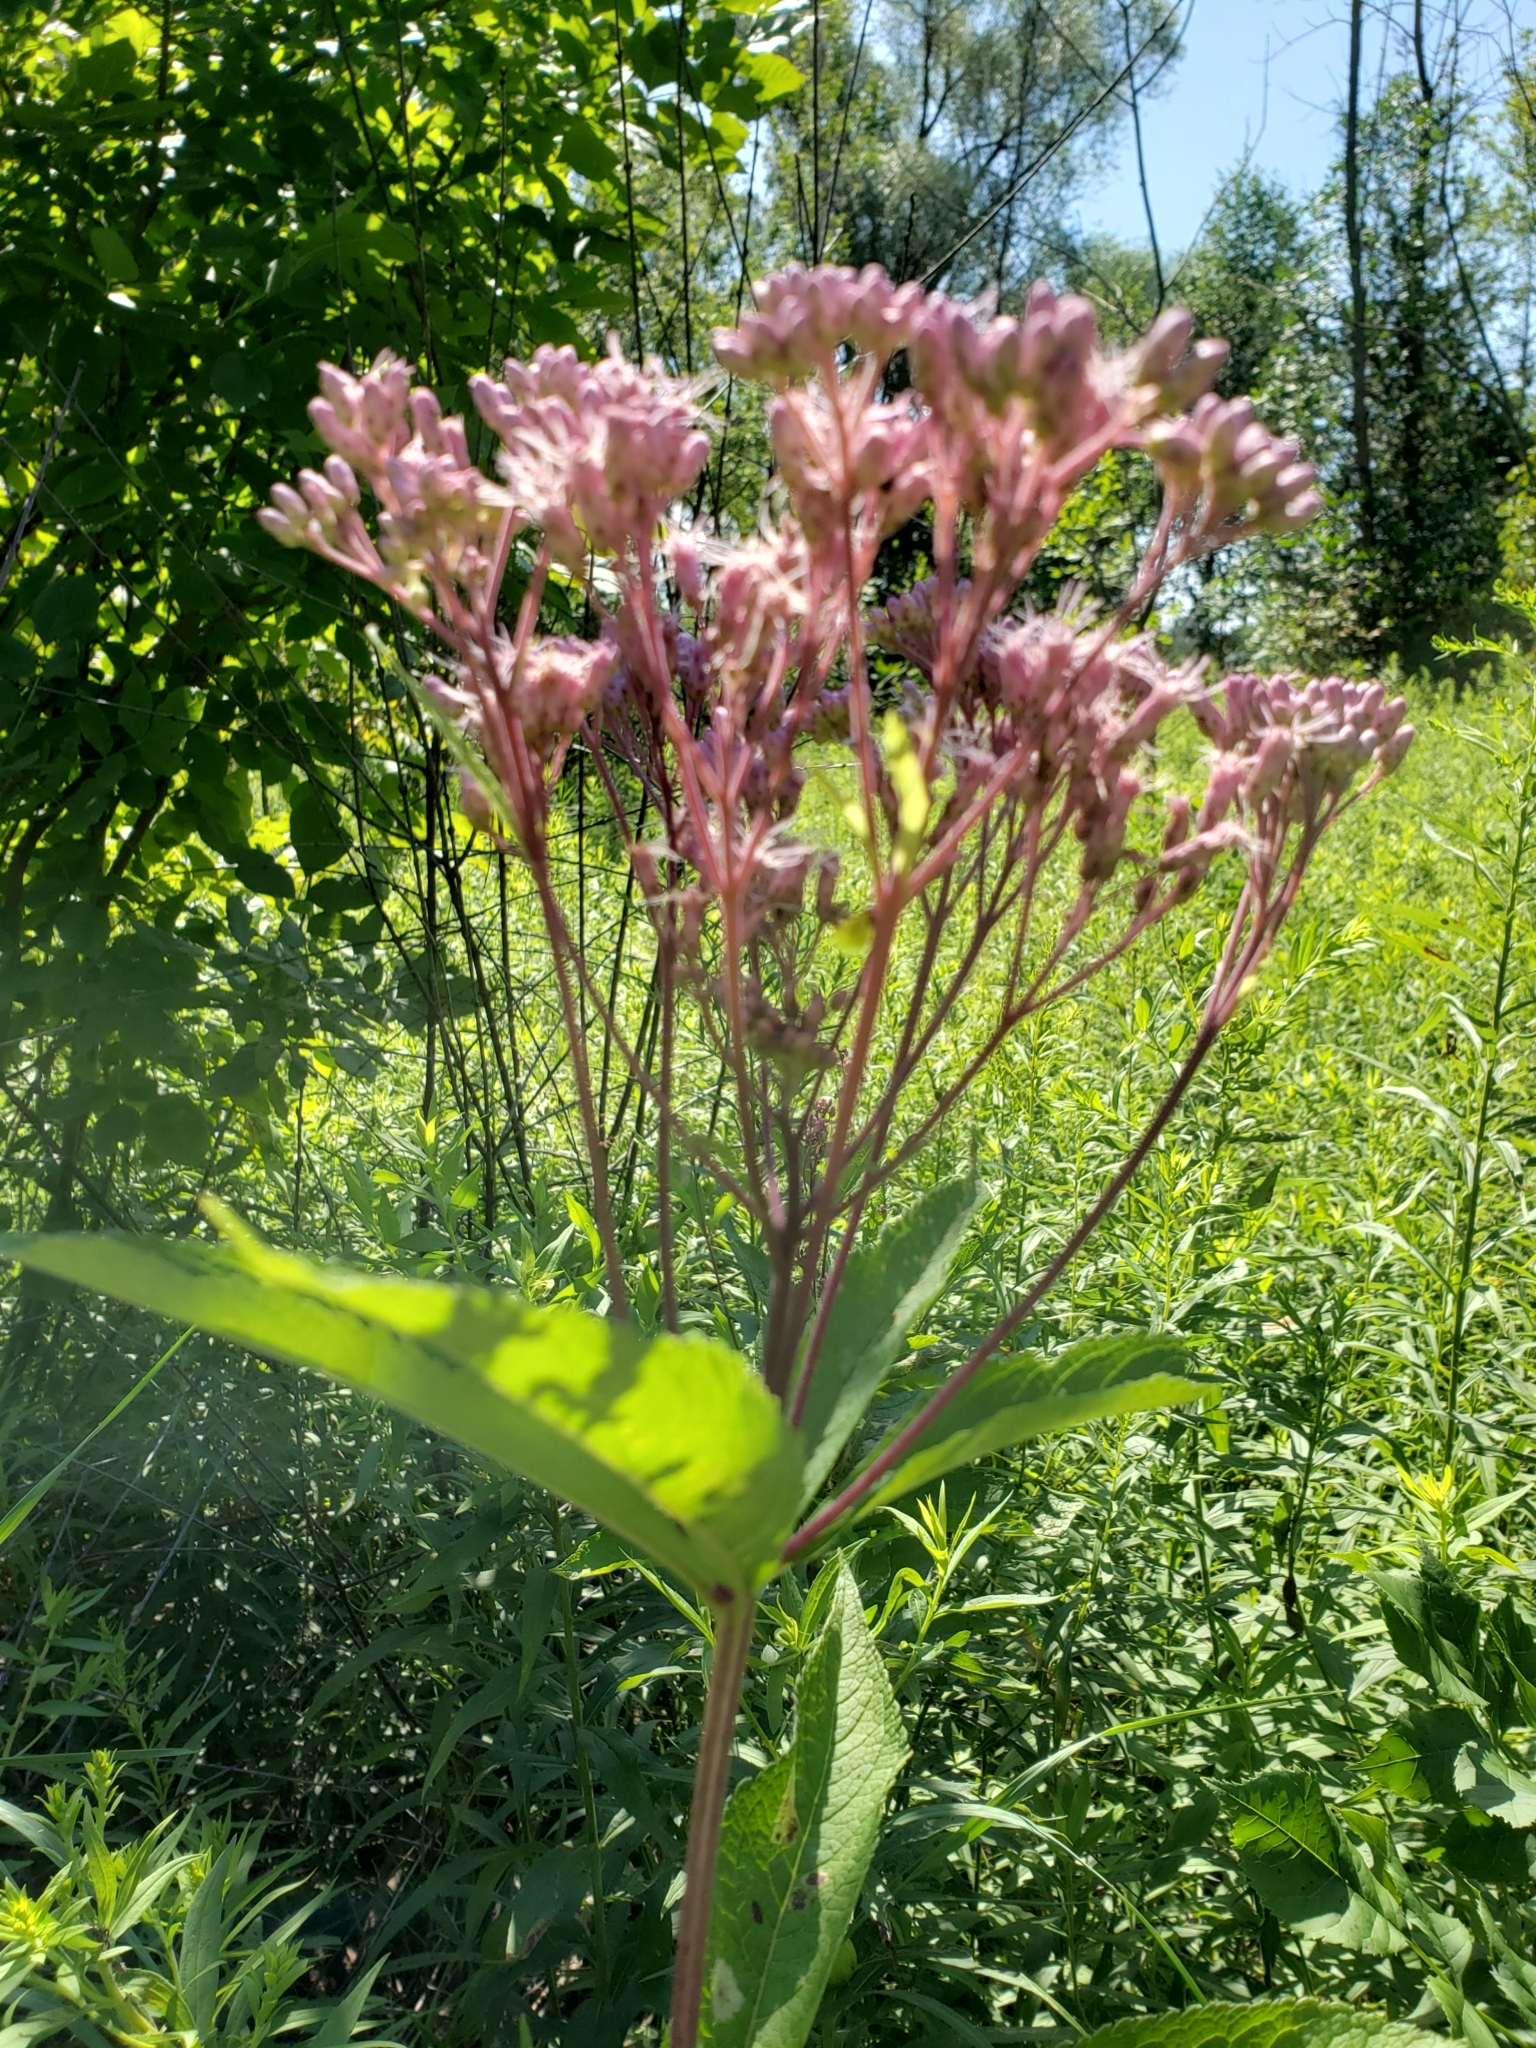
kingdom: Plantae
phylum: Tracheophyta
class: Magnoliopsida
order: Asterales
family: Asteraceae
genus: Eutrochium
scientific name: Eutrochium maculatum
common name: Spotted joe pye weed
